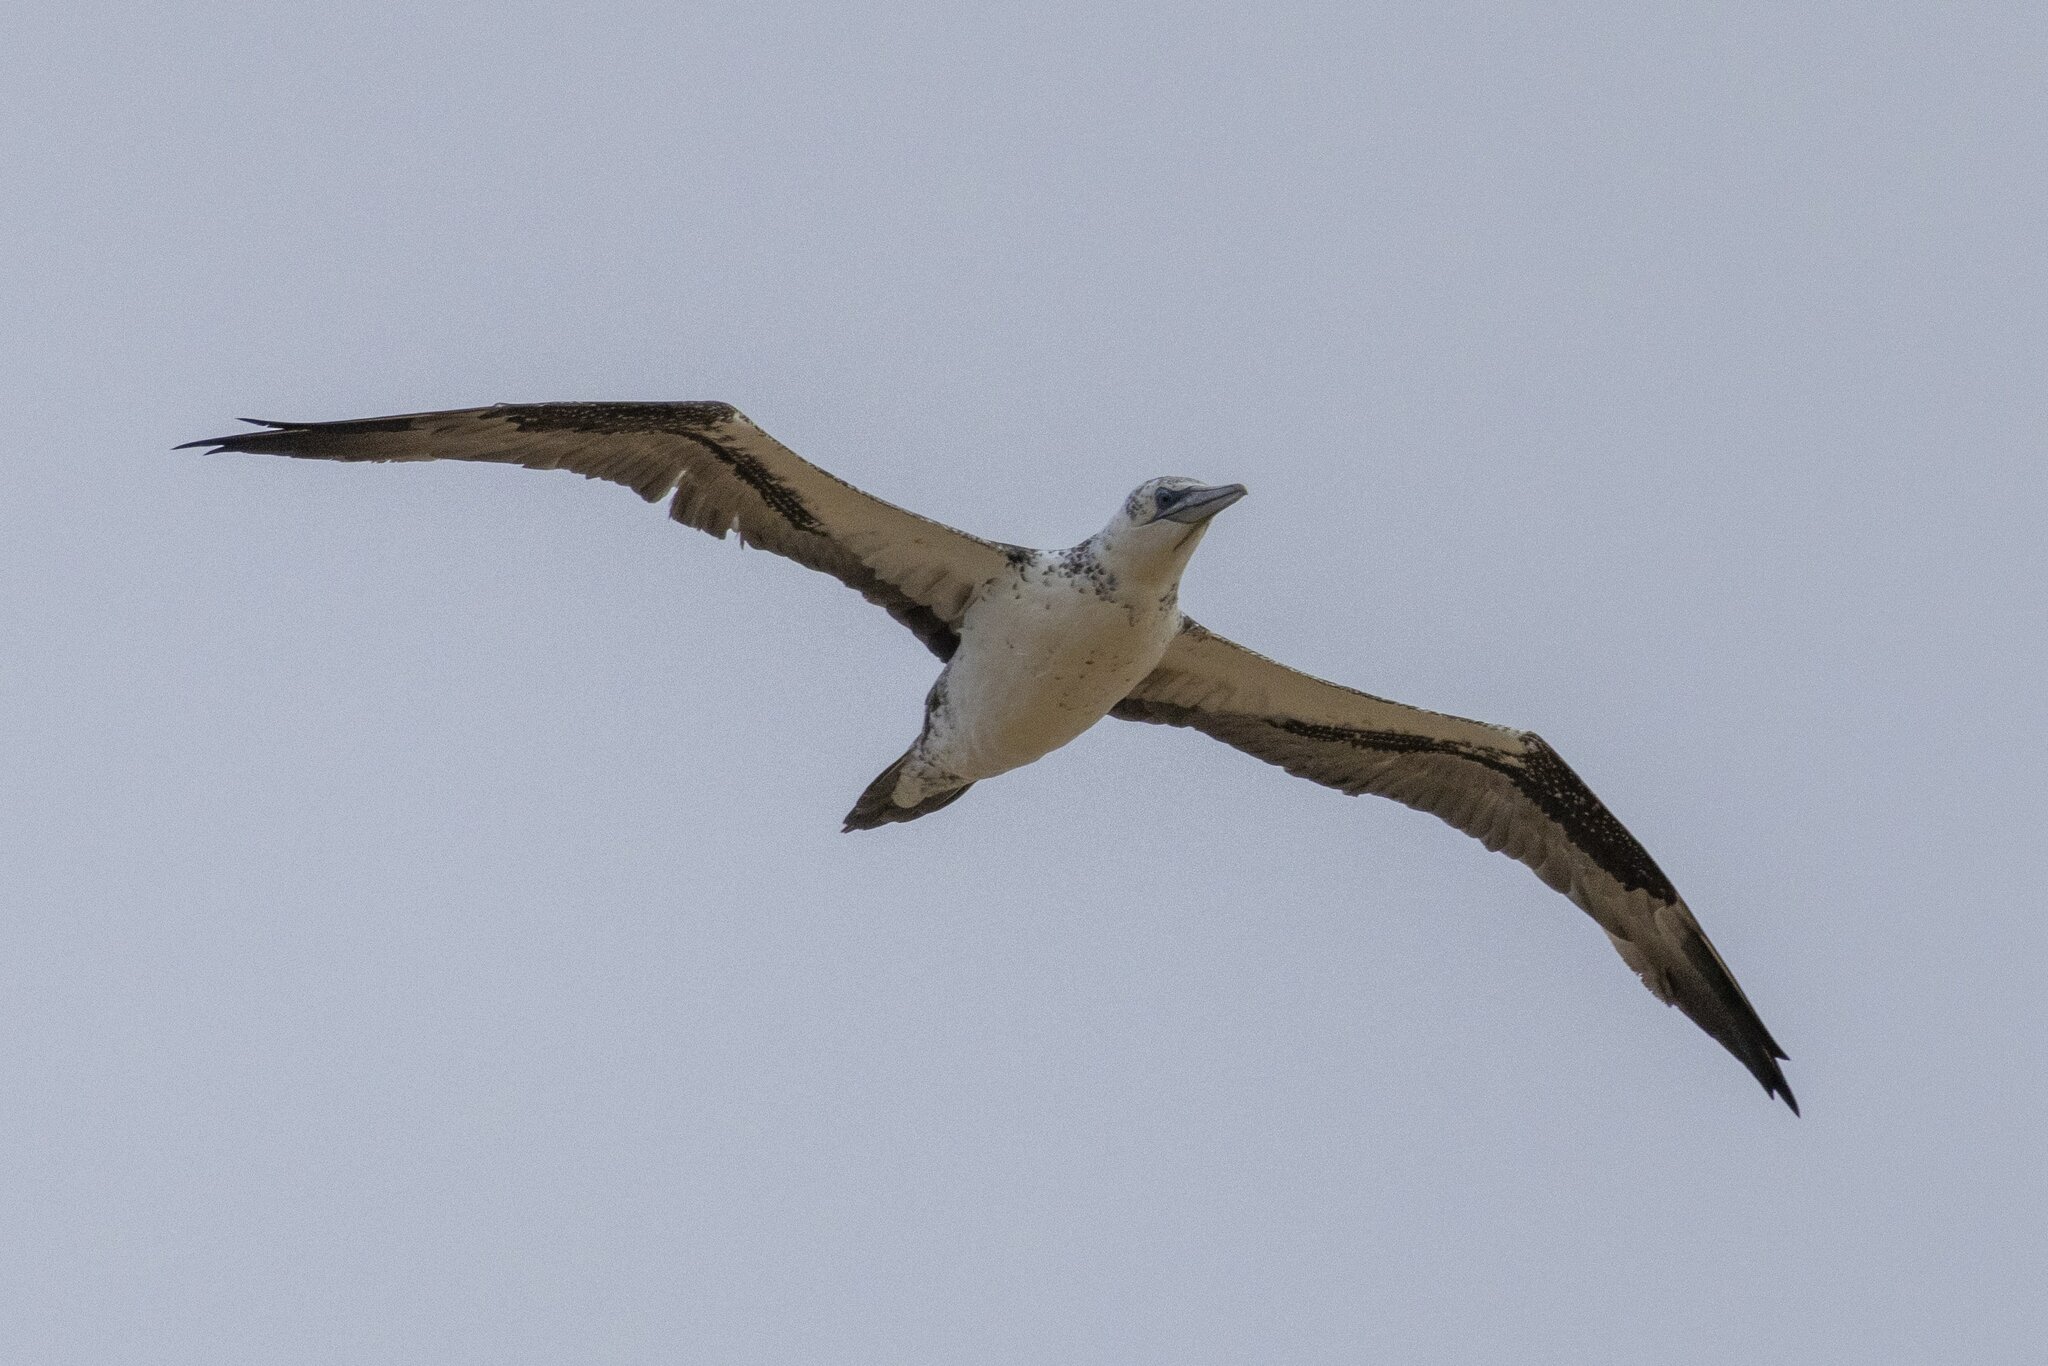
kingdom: Animalia
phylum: Chordata
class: Aves
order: Suliformes
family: Sulidae
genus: Morus
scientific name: Morus bassanus
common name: Northern gannet
